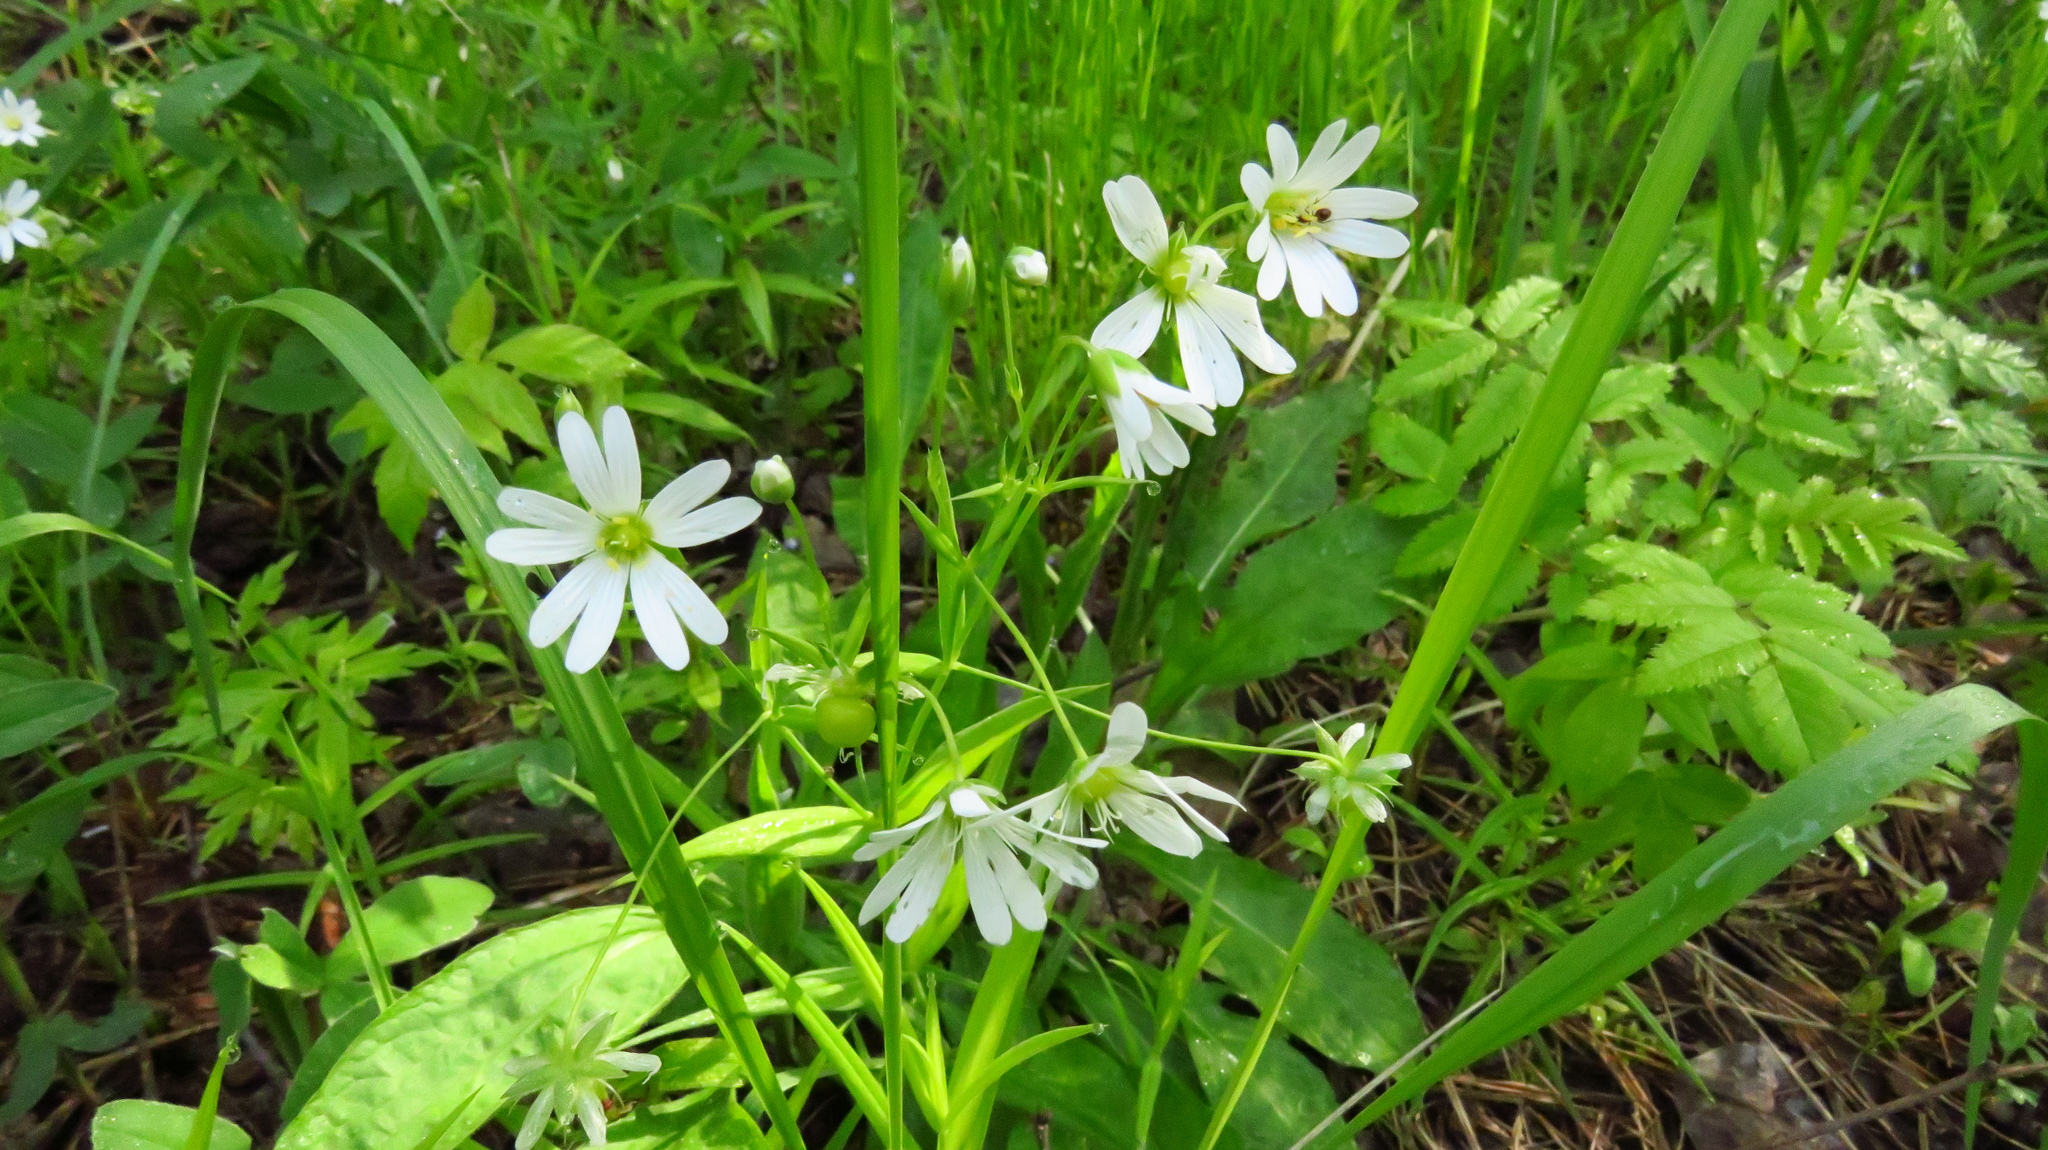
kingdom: Plantae
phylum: Tracheophyta
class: Magnoliopsida
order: Caryophyllales
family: Caryophyllaceae
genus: Rabelera
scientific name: Rabelera holostea
